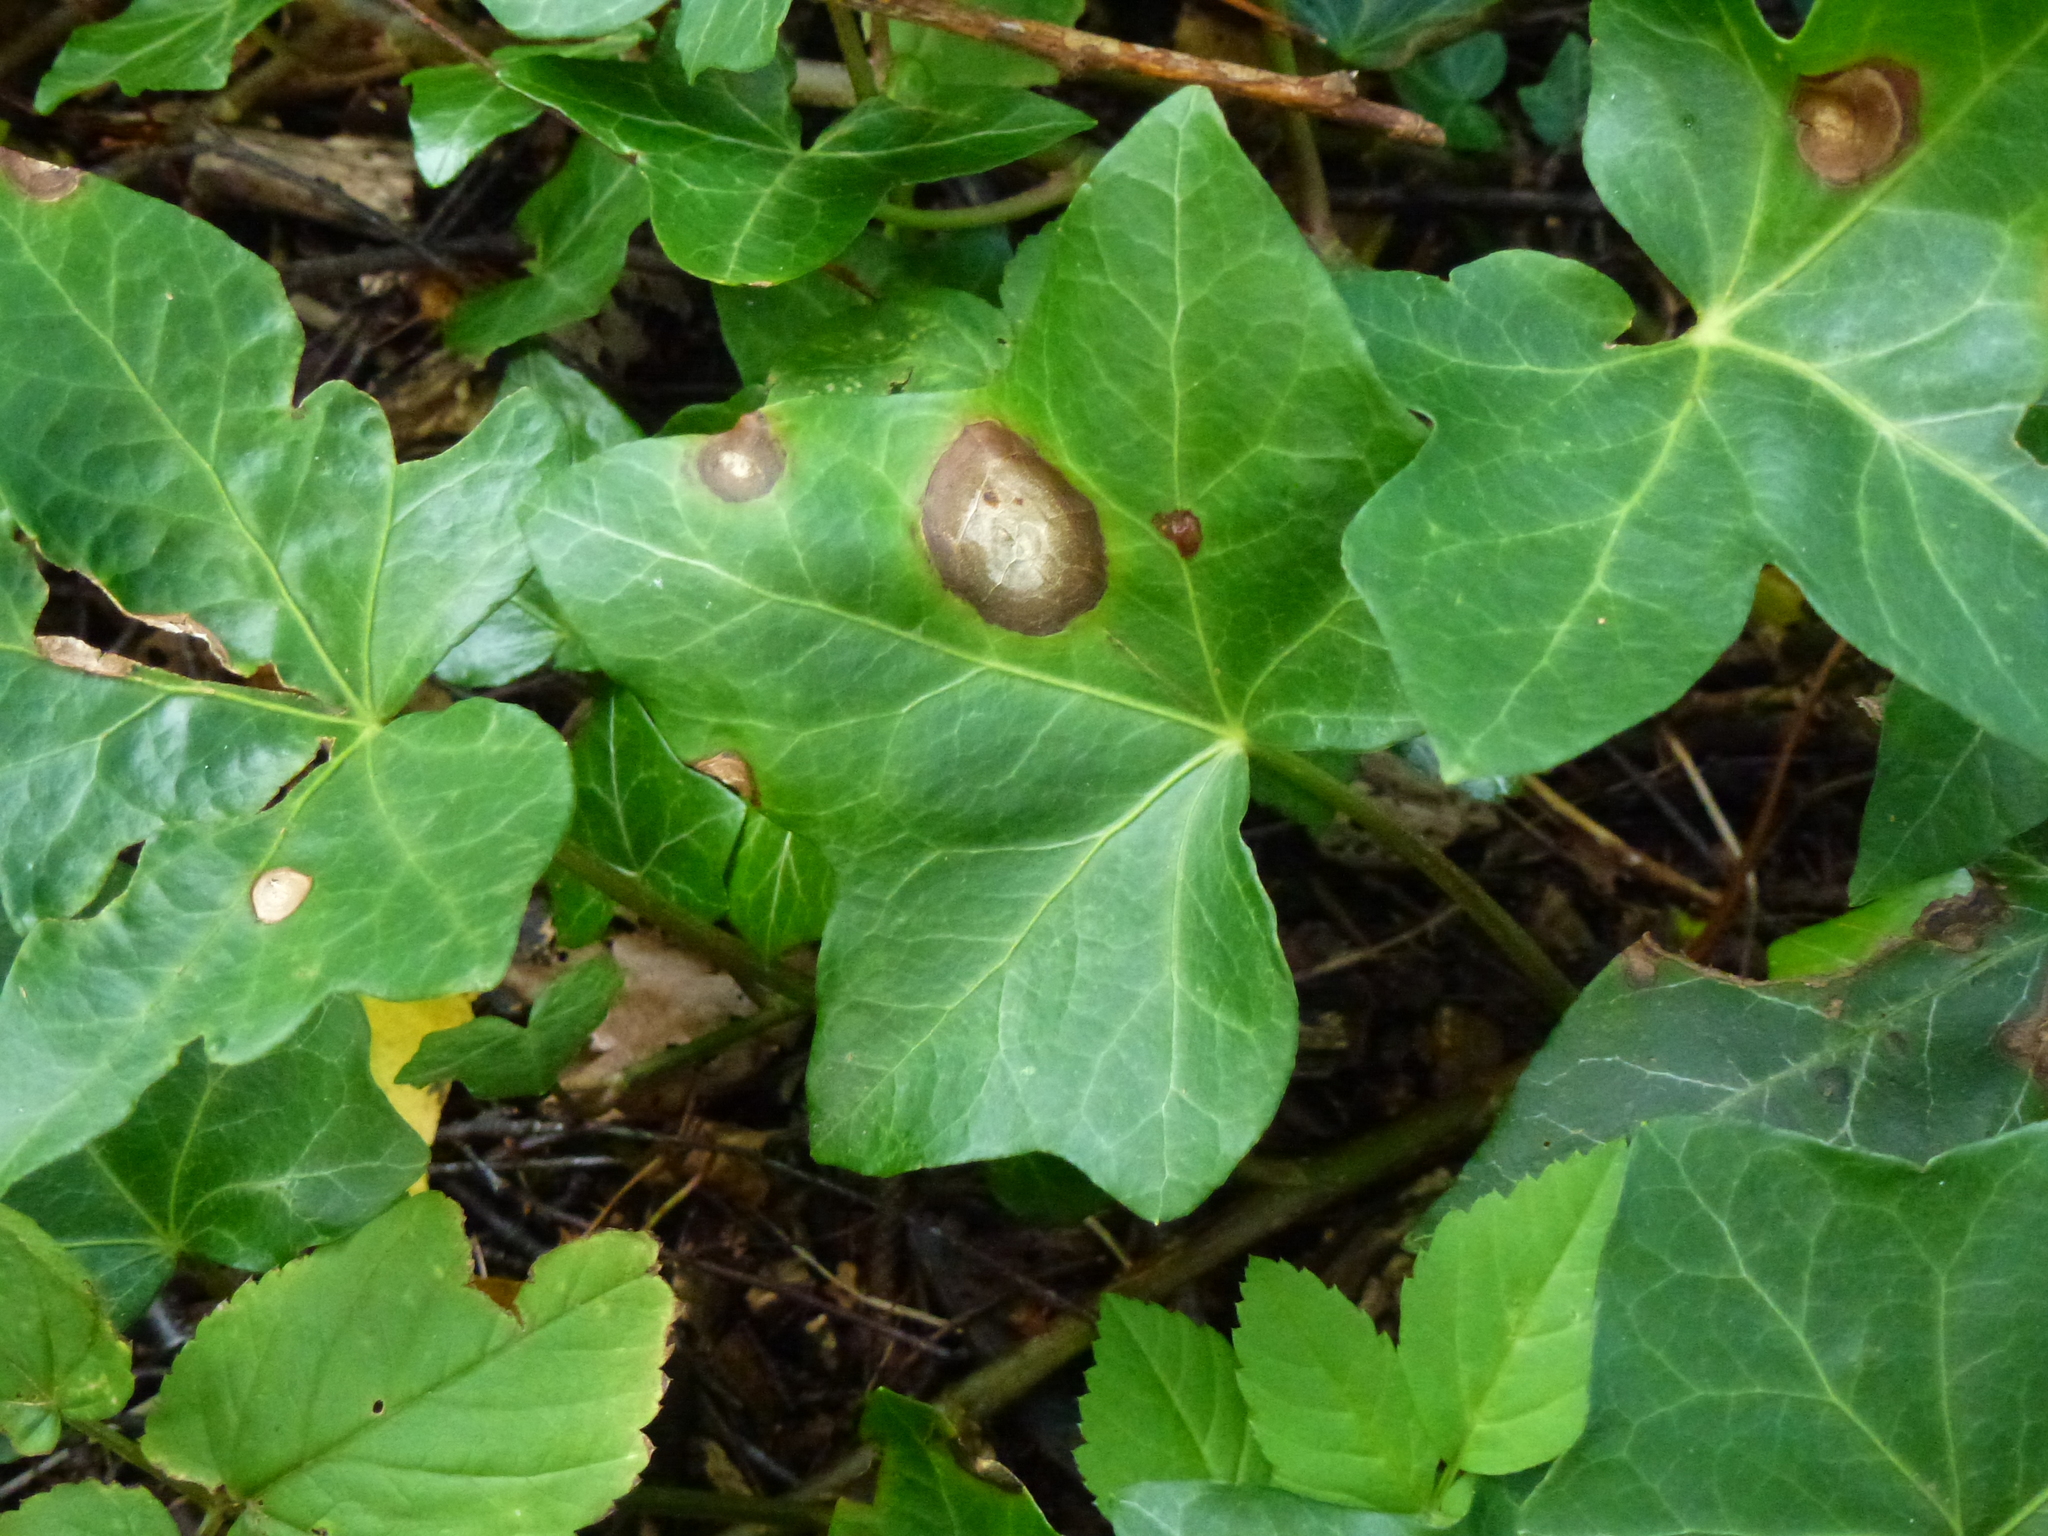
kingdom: Fungi
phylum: Ascomycota
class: Dothideomycetes
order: Pleosporales
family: Didymellaceae
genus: Boeremia
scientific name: Boeremia hedericola
